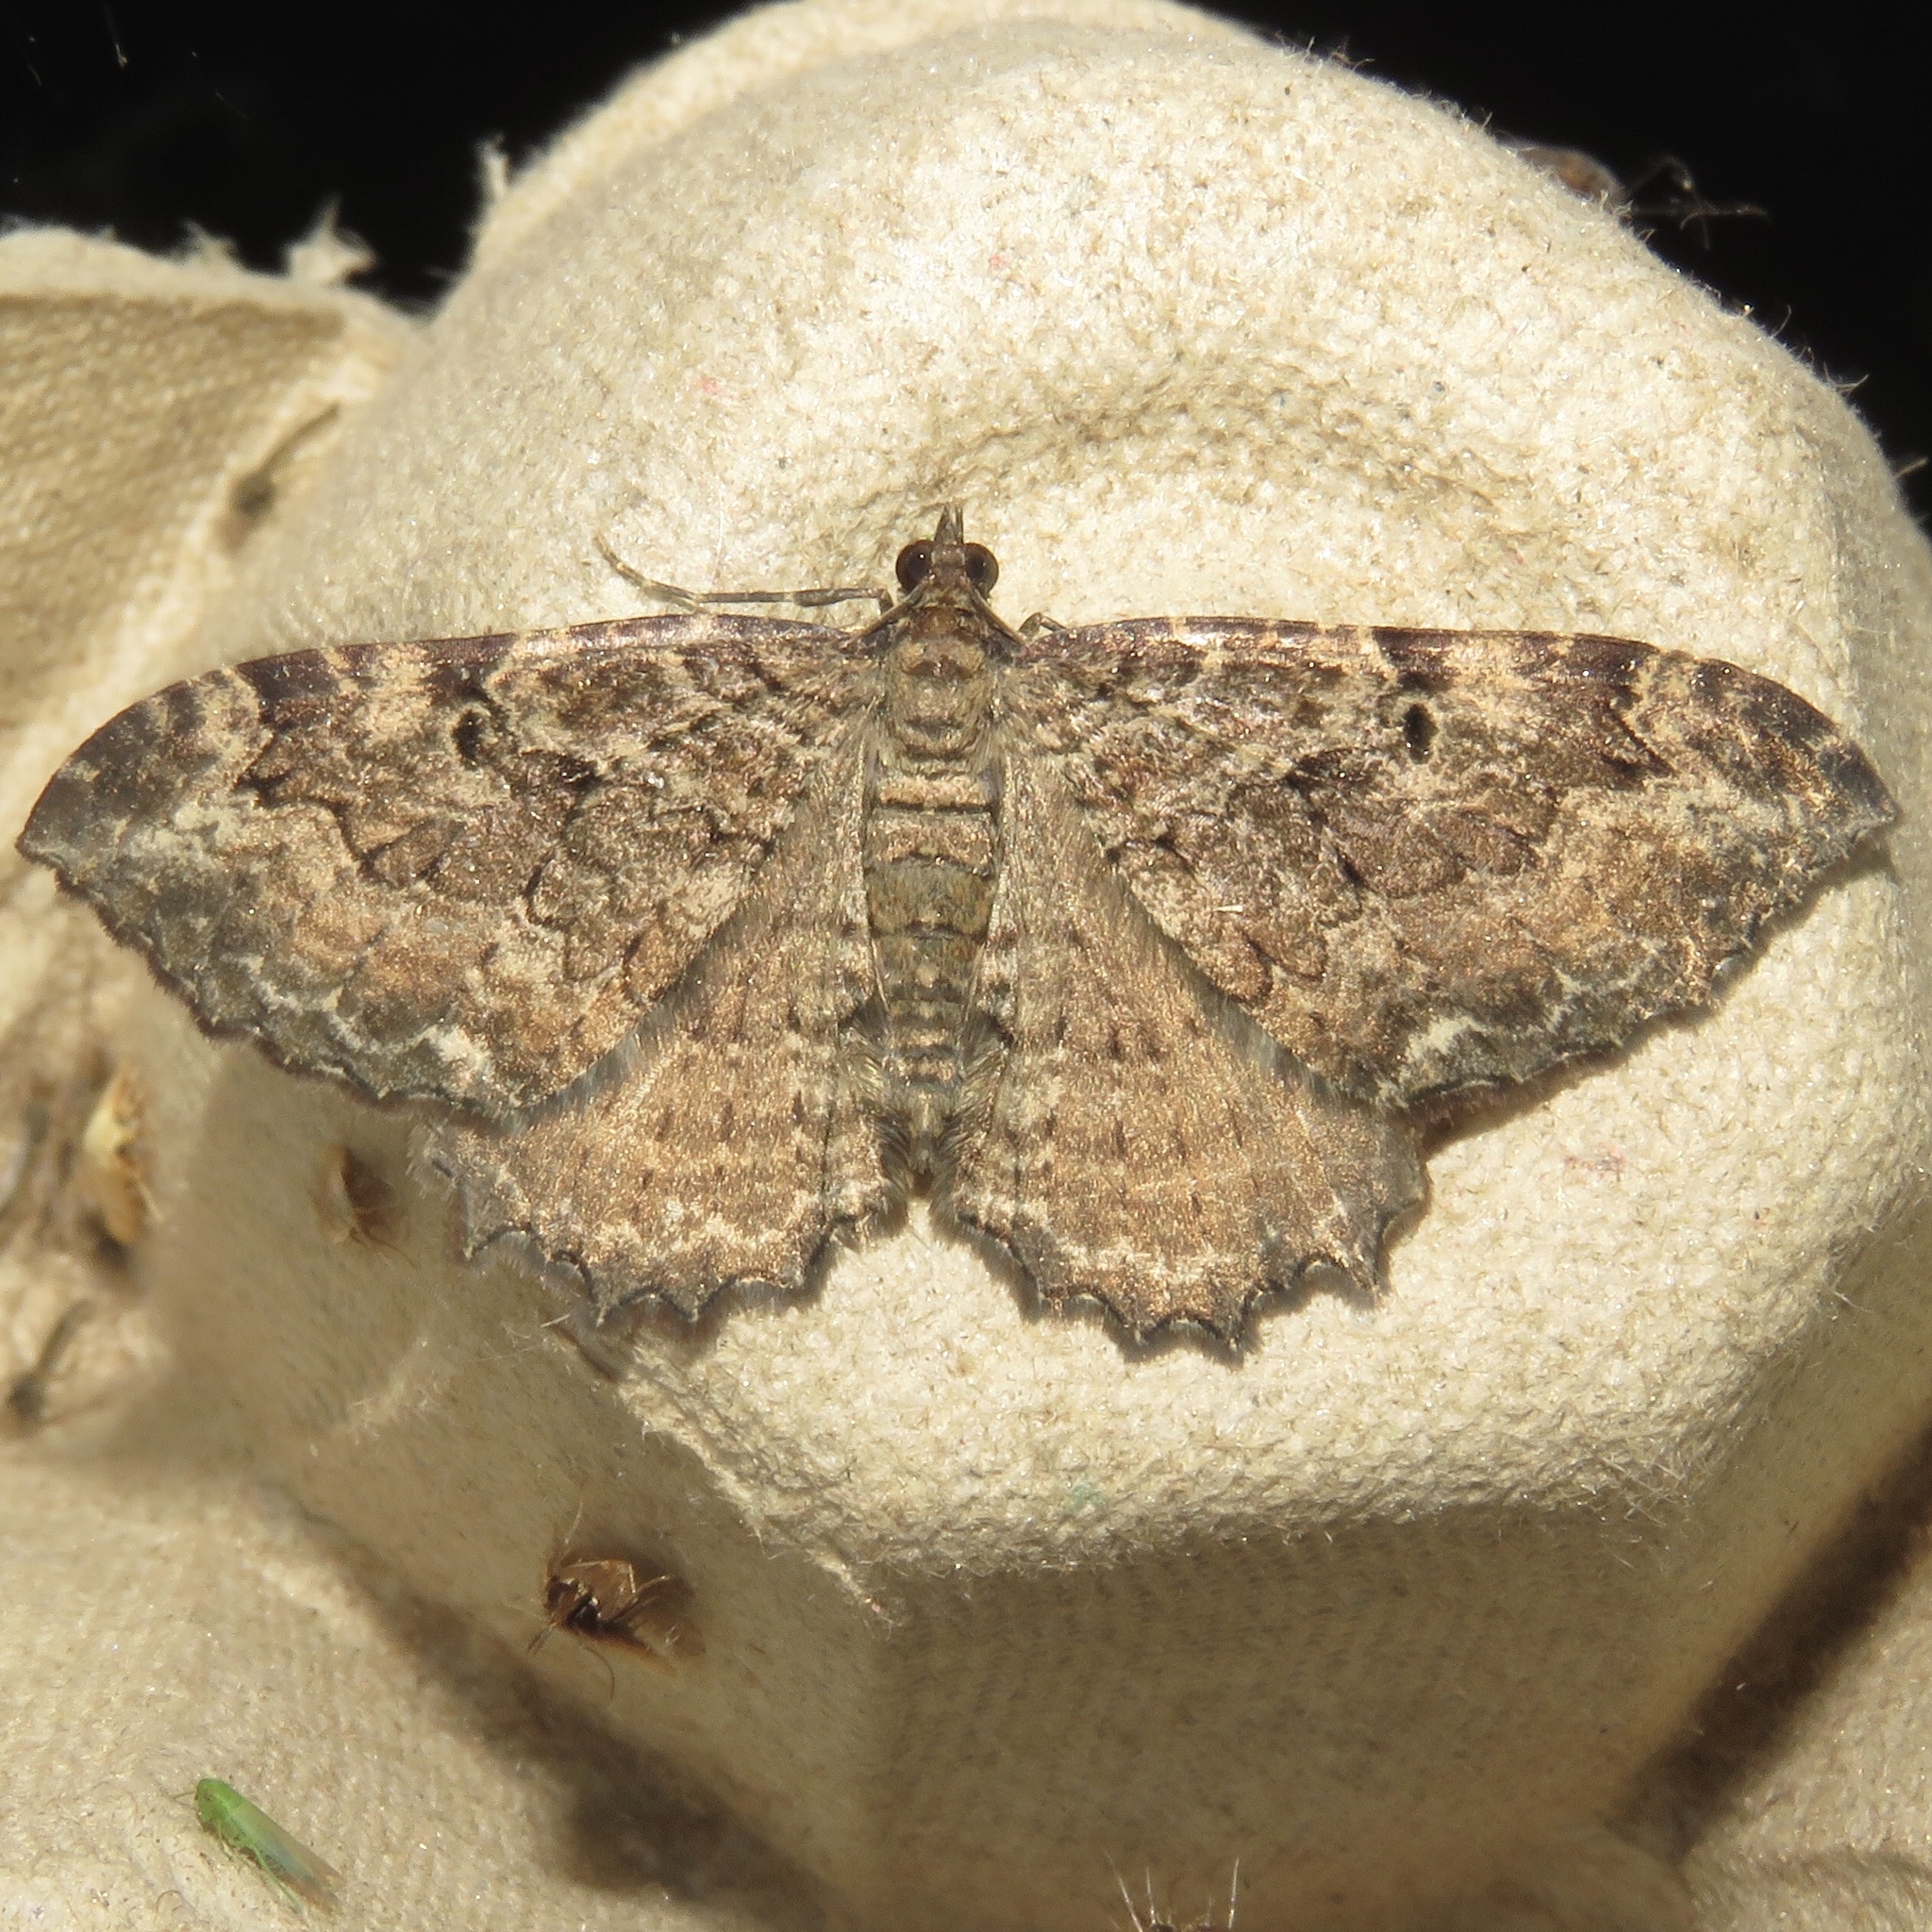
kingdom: Animalia
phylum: Arthropoda
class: Insecta
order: Lepidoptera
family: Geometridae
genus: Rheumaptera
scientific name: Rheumaptera
